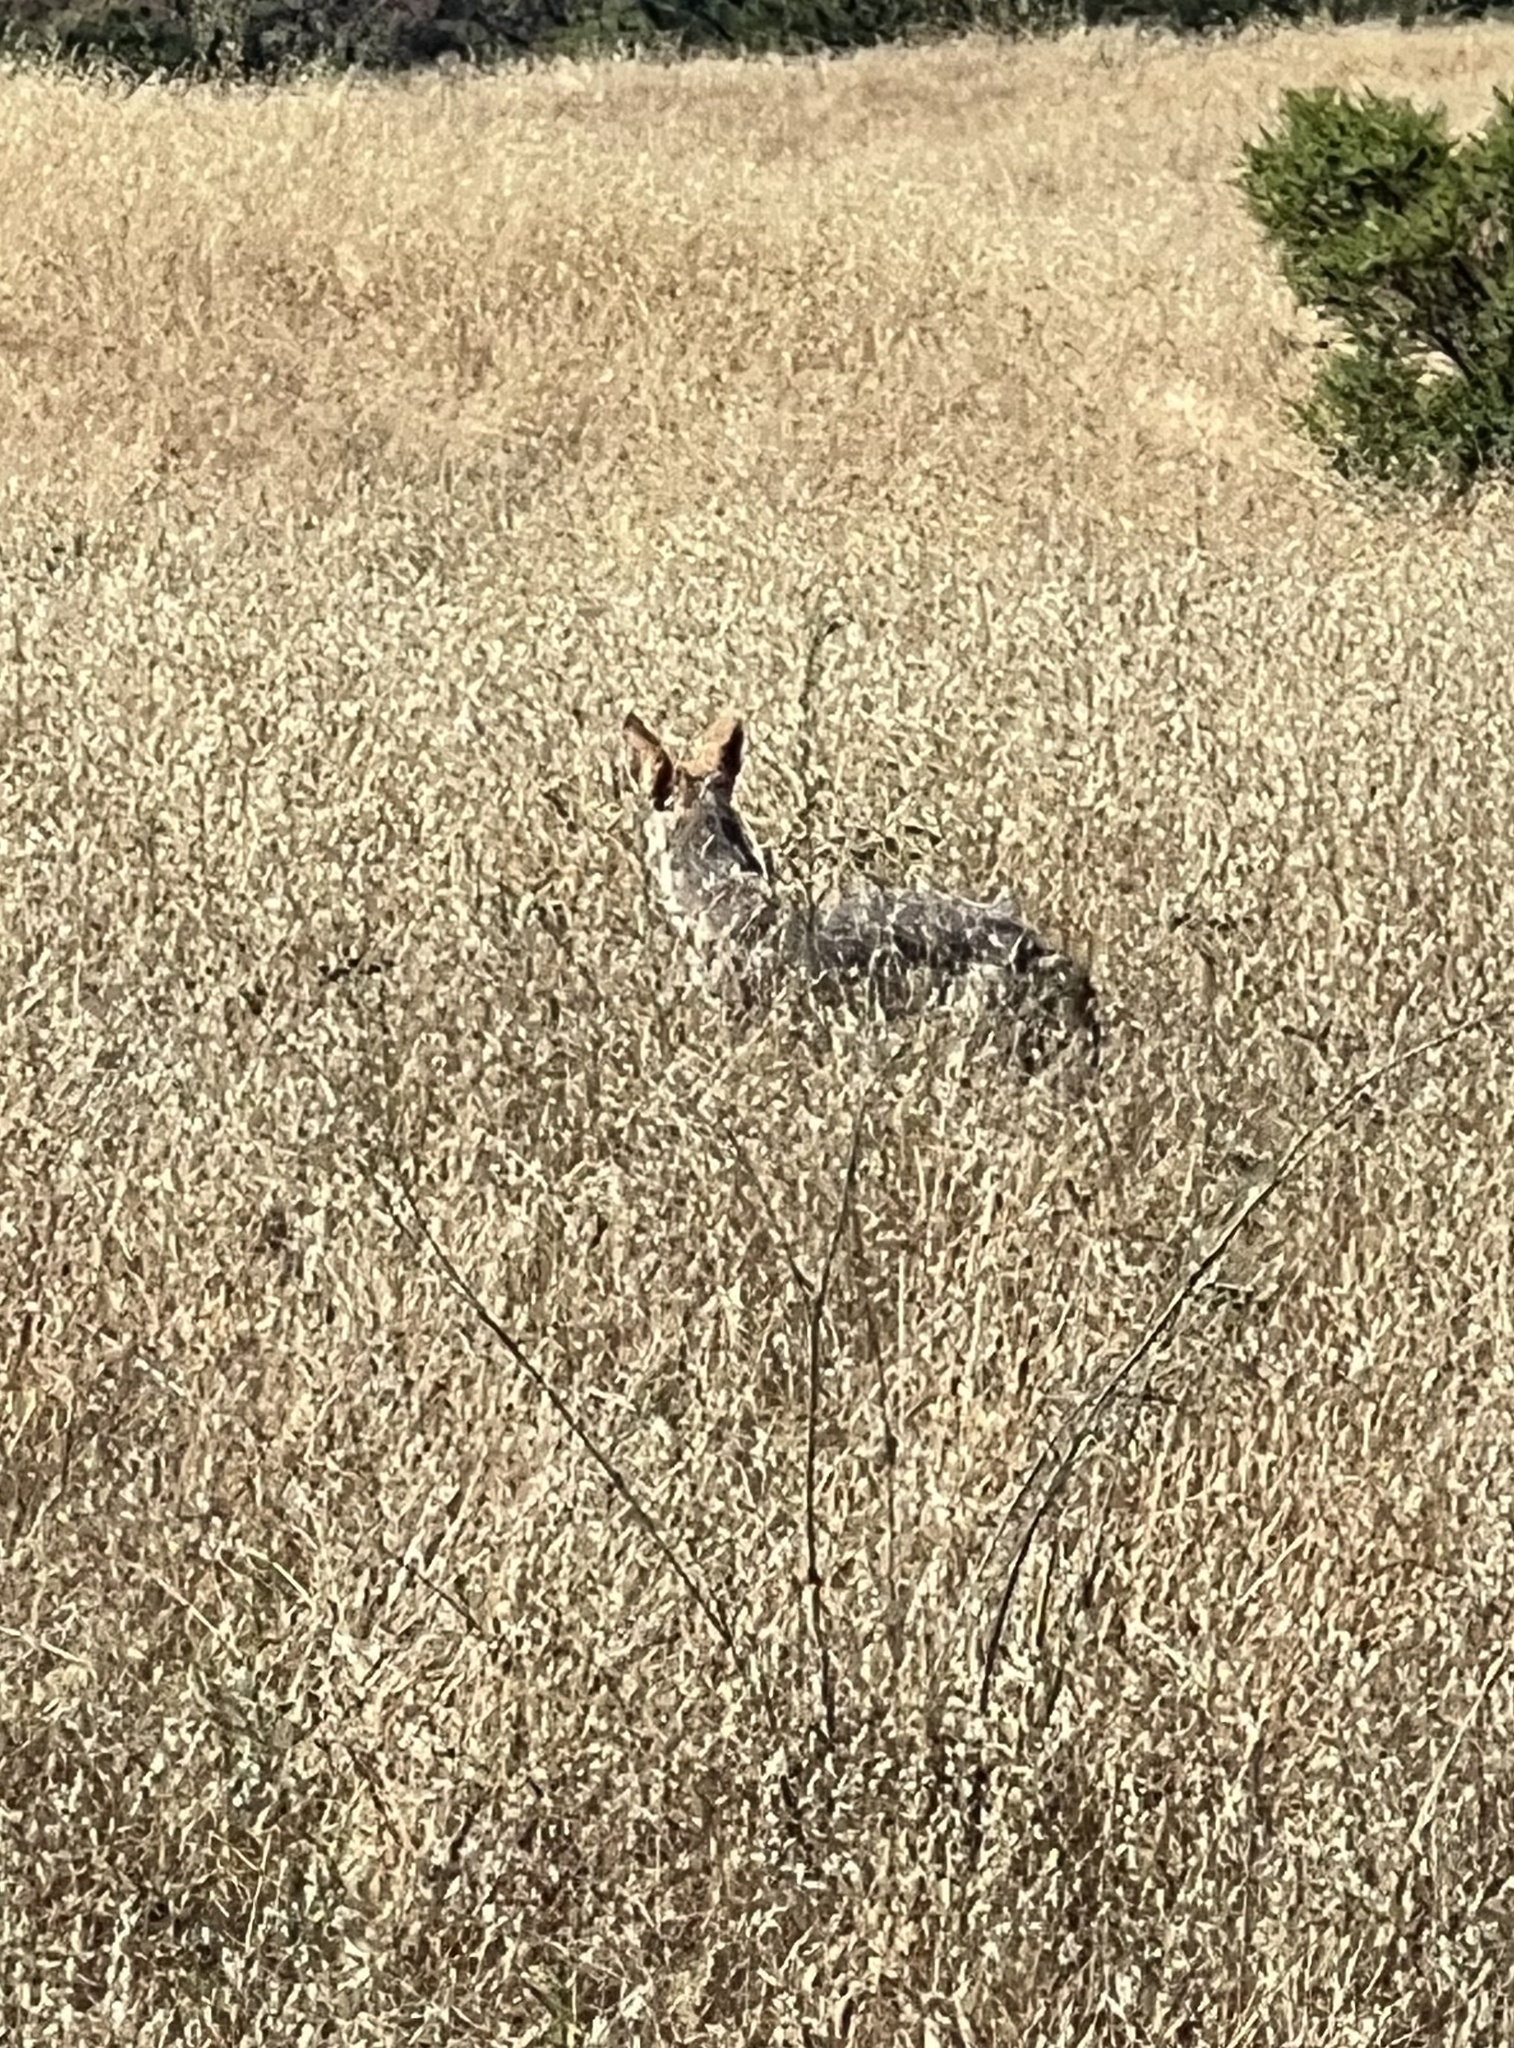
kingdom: Animalia
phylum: Chordata
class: Mammalia
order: Carnivora
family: Canidae
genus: Canis
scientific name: Canis latrans
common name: Coyote
